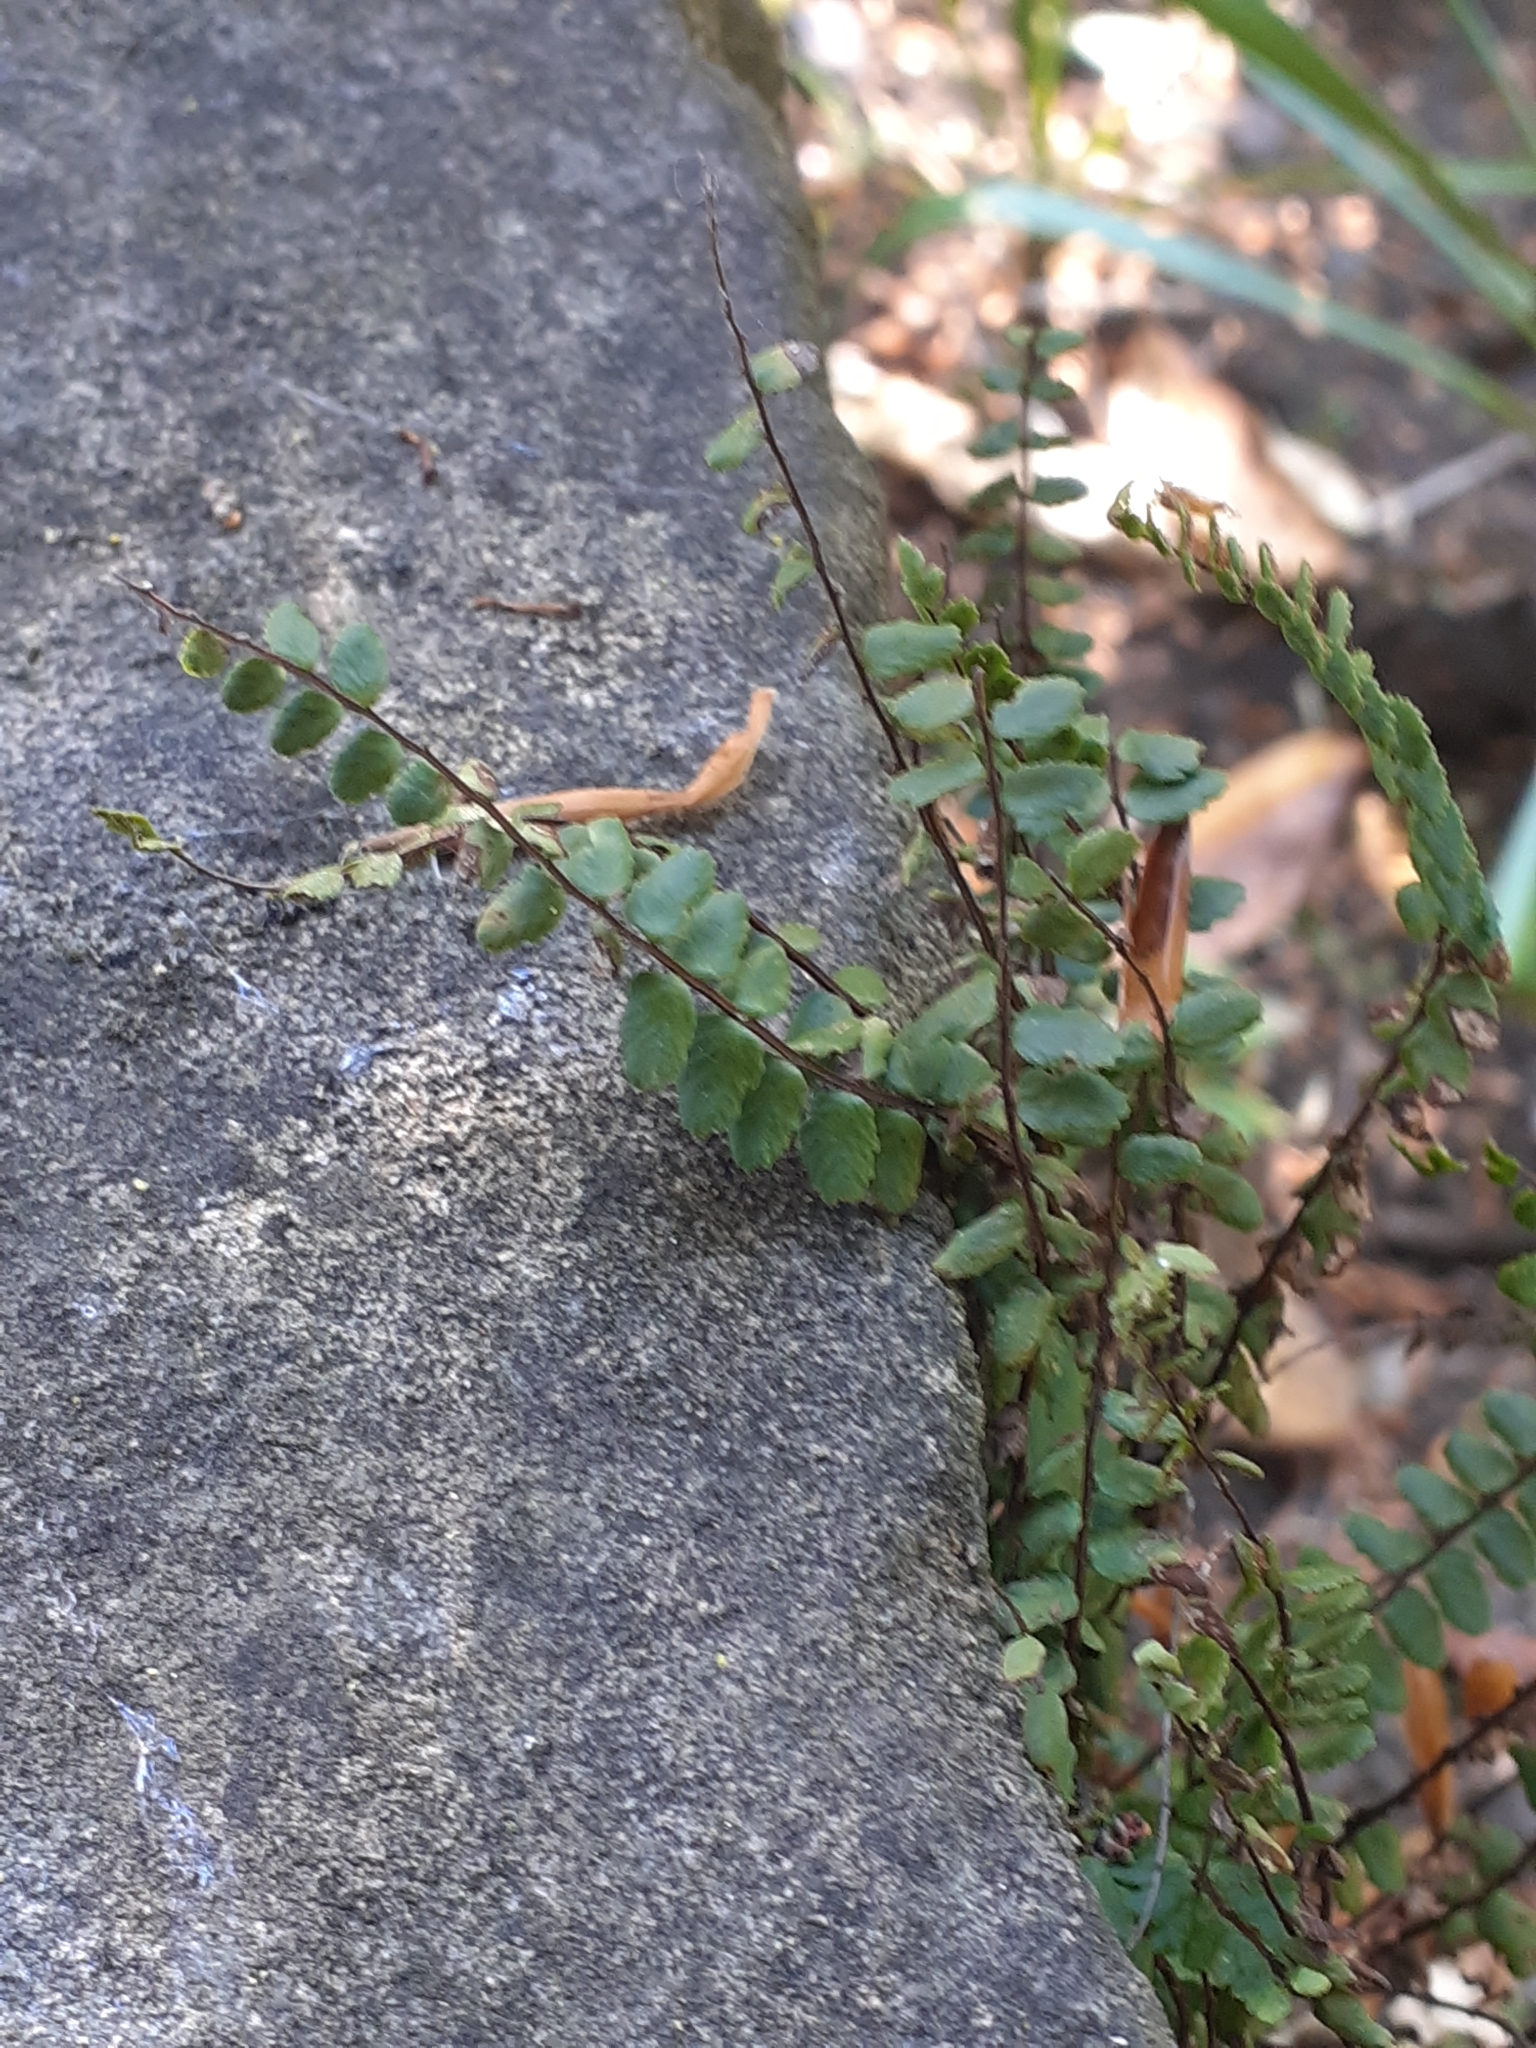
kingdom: Plantae
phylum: Tracheophyta
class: Polypodiopsida
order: Polypodiales
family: Aspleniaceae
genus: Asplenium
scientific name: Asplenium trichomanes
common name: Maidenhair spleenwort
